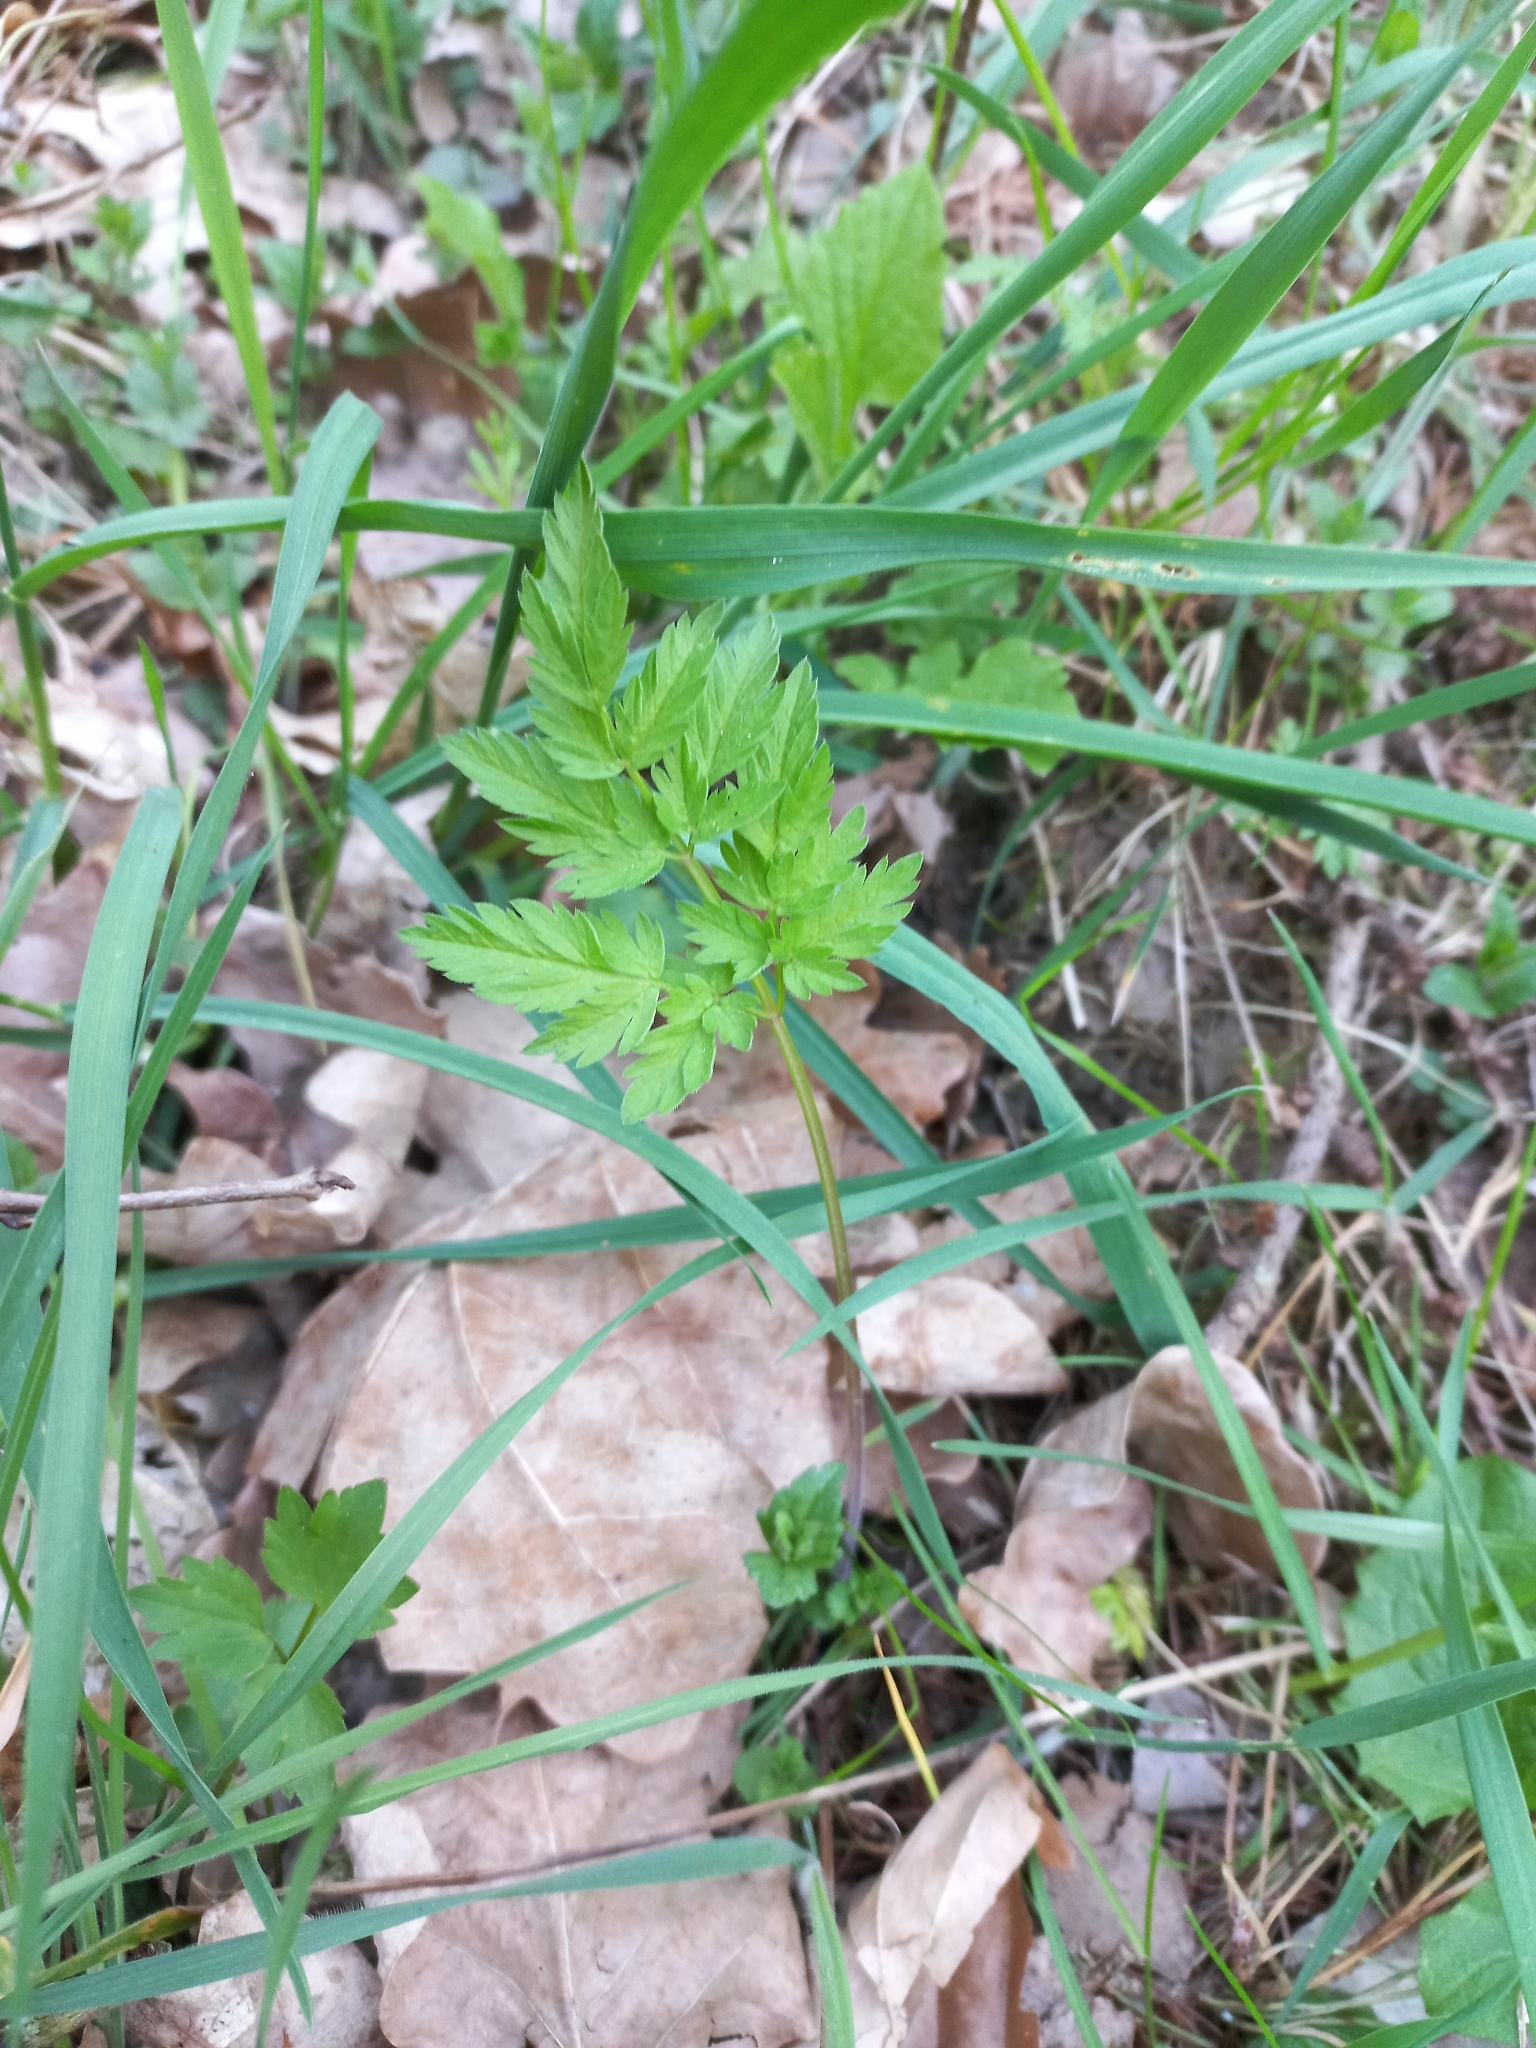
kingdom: Plantae
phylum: Tracheophyta
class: Magnoliopsida
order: Apiales
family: Apiaceae
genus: Anthriscus
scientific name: Anthriscus sylvestris
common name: Cow parsley
